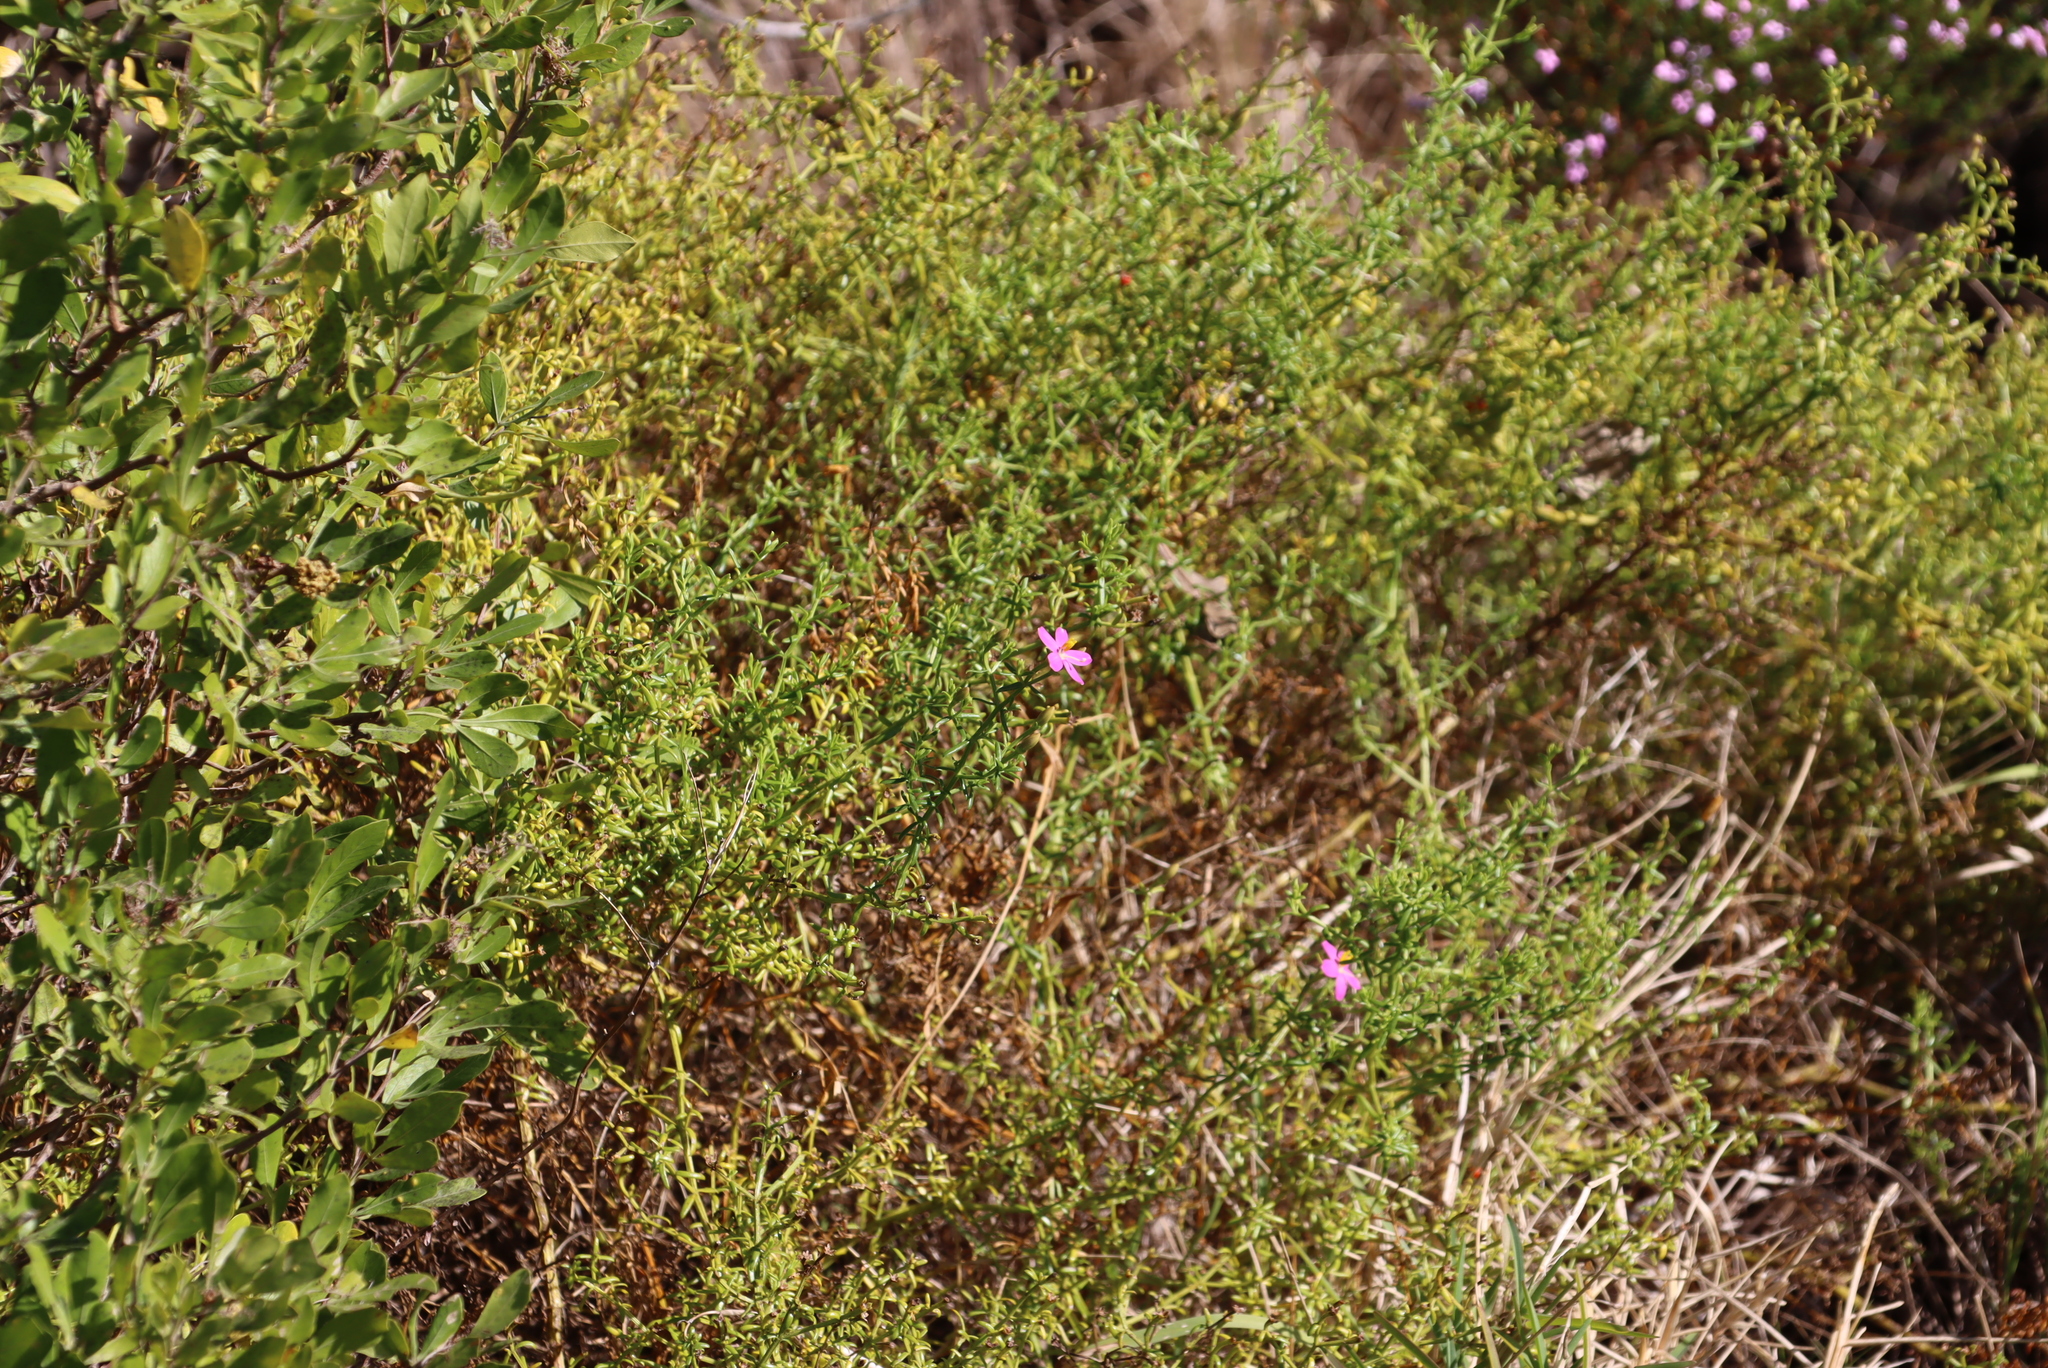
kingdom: Plantae
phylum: Tracheophyta
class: Magnoliopsida
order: Sapindales
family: Rutaceae
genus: Coleonema
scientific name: Coleonema pulchellum
